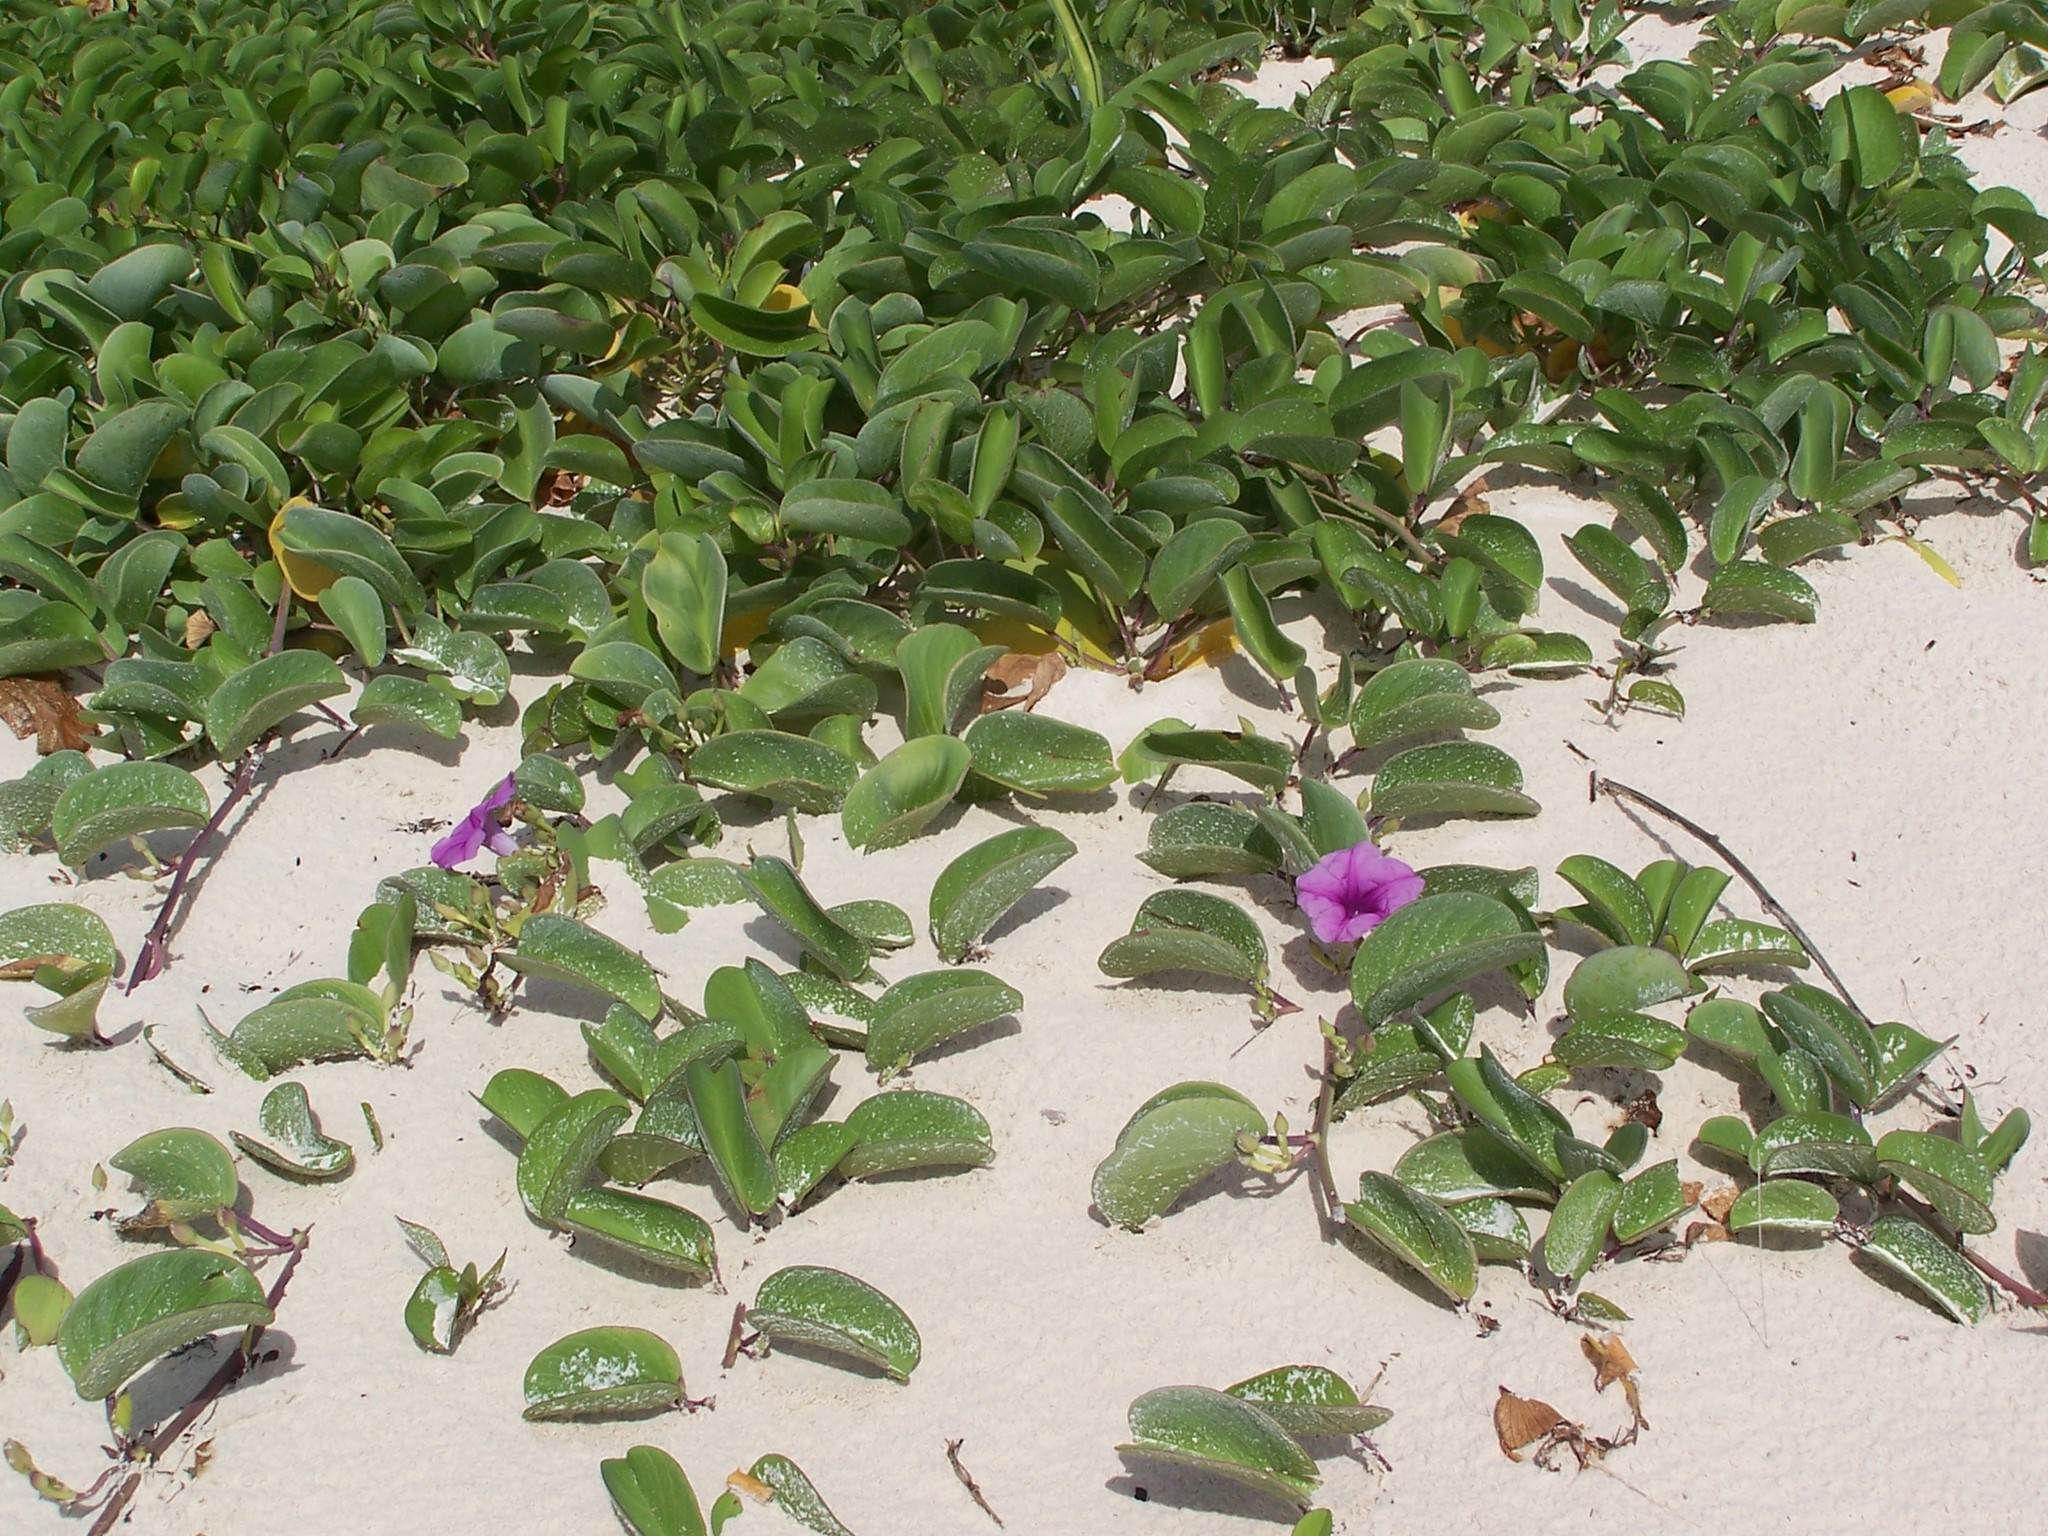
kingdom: Plantae
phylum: Tracheophyta
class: Magnoliopsida
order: Solanales
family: Convolvulaceae
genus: Ipomoea
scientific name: Ipomoea pes-caprae
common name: Beach morning glory
